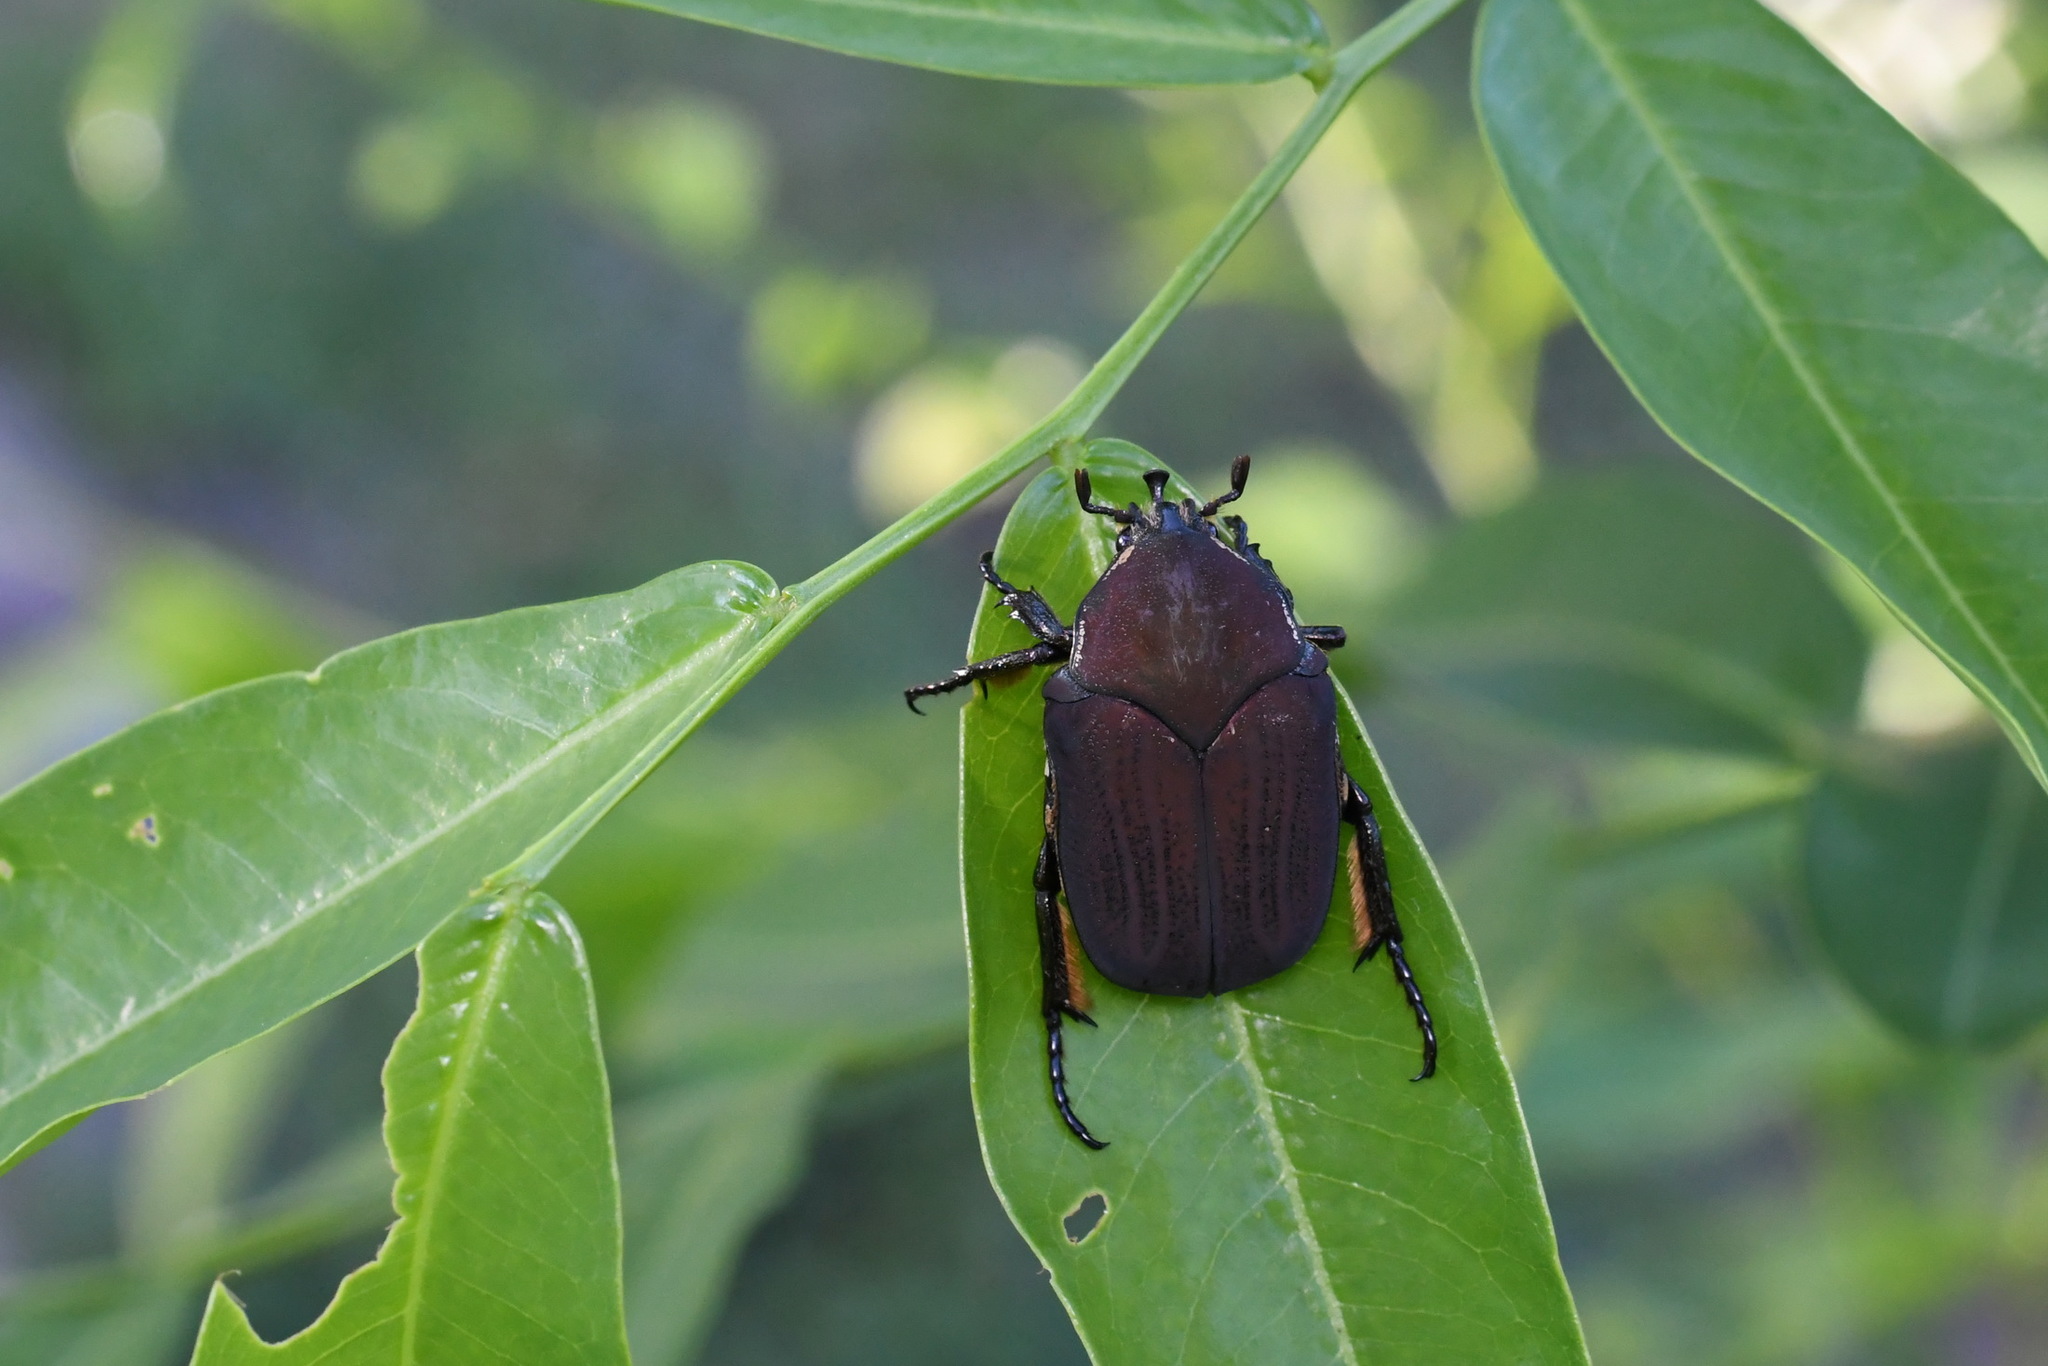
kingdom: Animalia
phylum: Arthropoda
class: Insecta
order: Coleoptera
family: Scarabaeidae
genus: Allorrhina
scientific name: Allorrhina menetriesi
